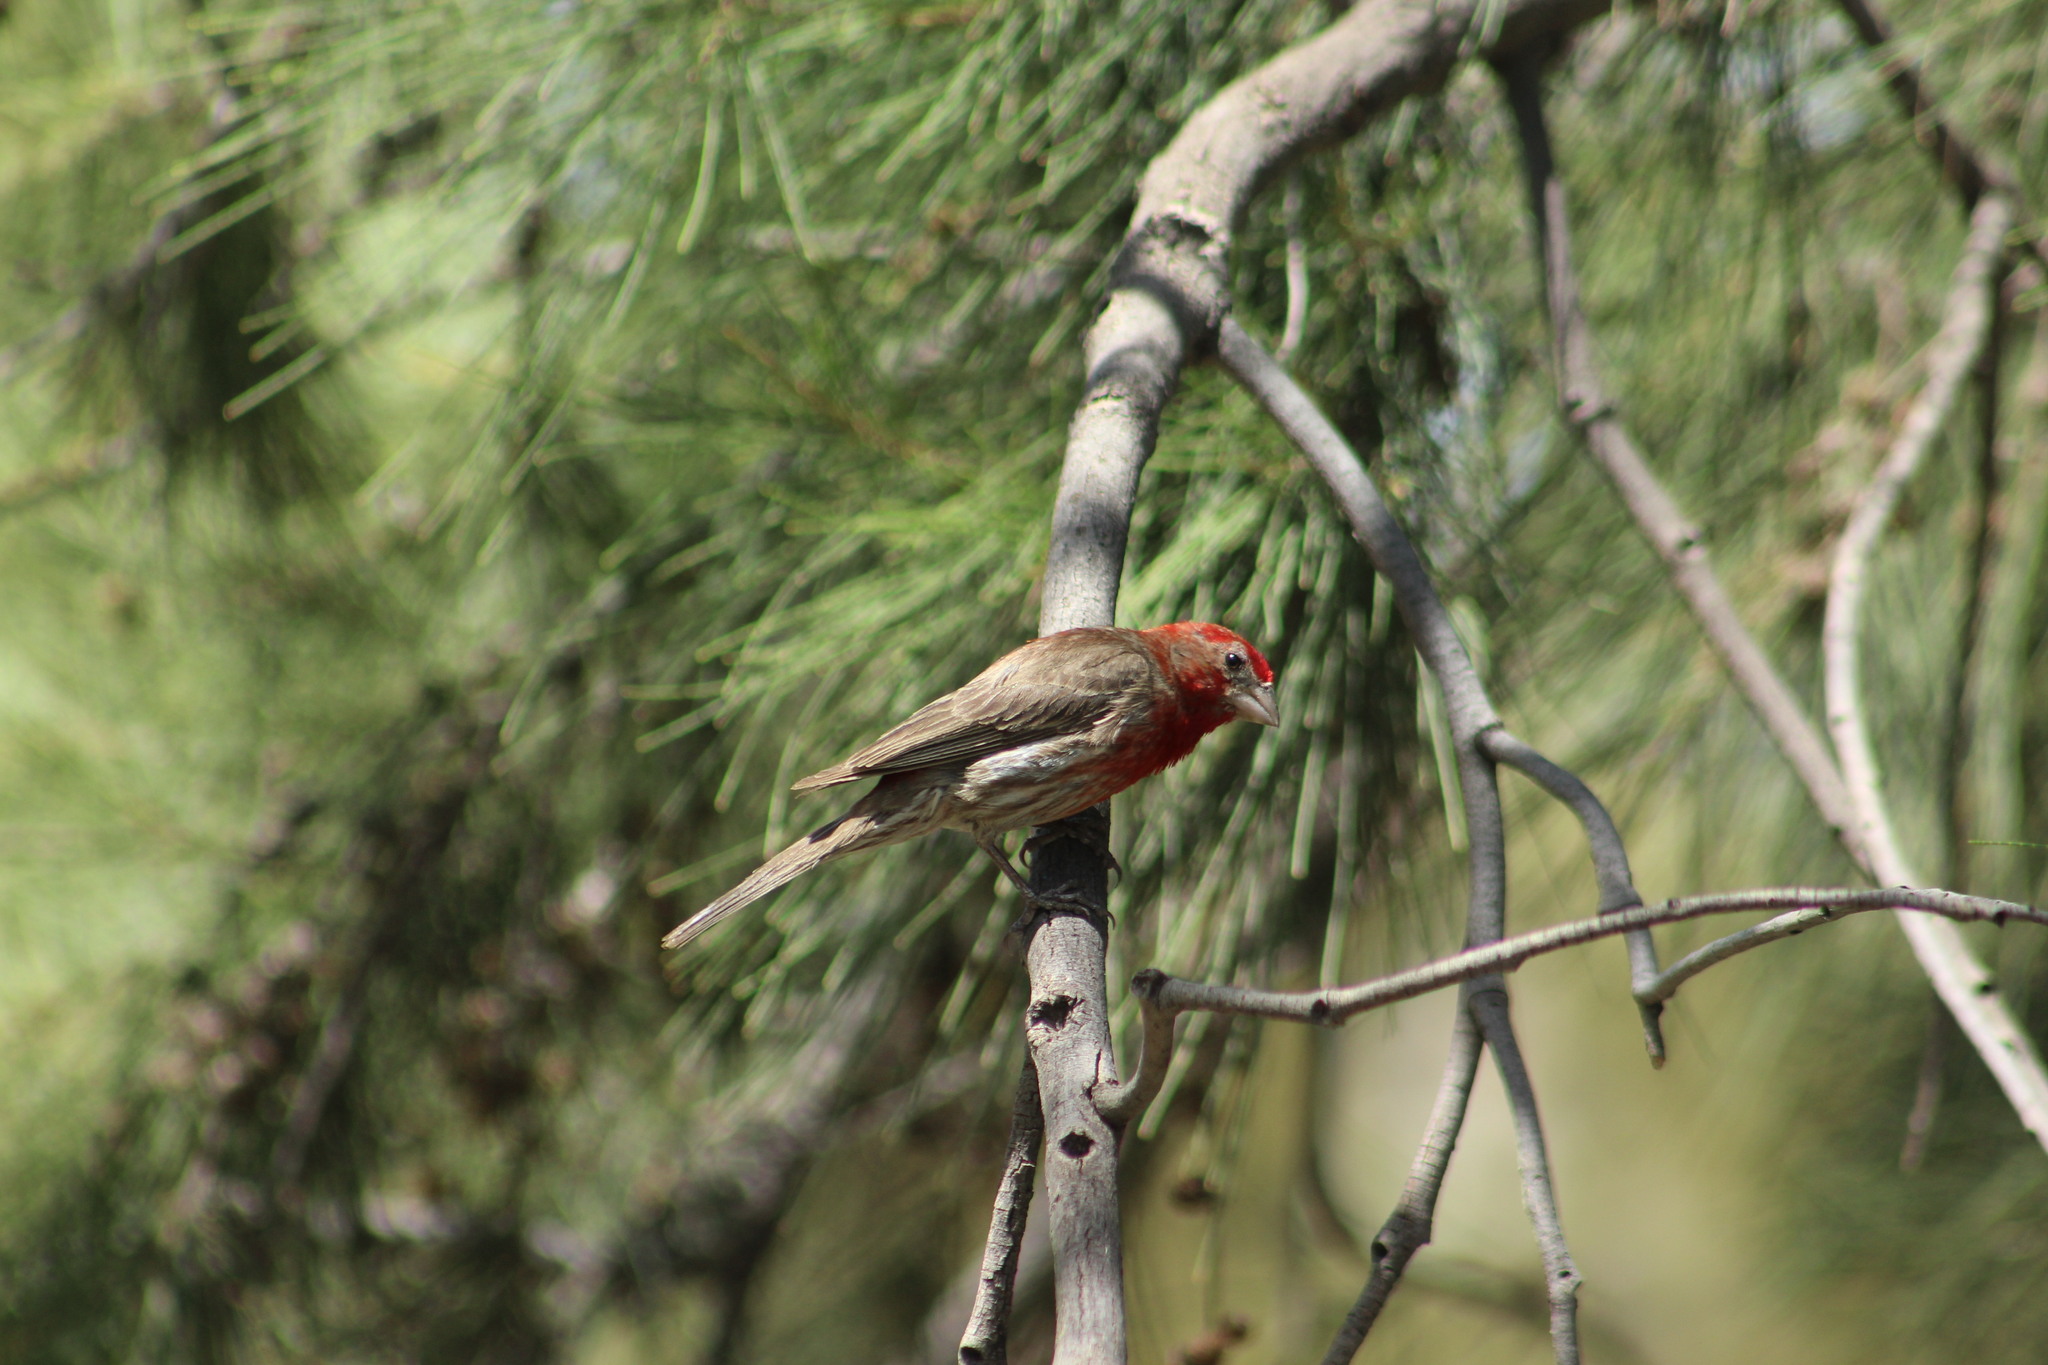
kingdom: Animalia
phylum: Chordata
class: Aves
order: Passeriformes
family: Fringillidae
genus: Haemorhous
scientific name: Haemorhous mexicanus
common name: House finch
